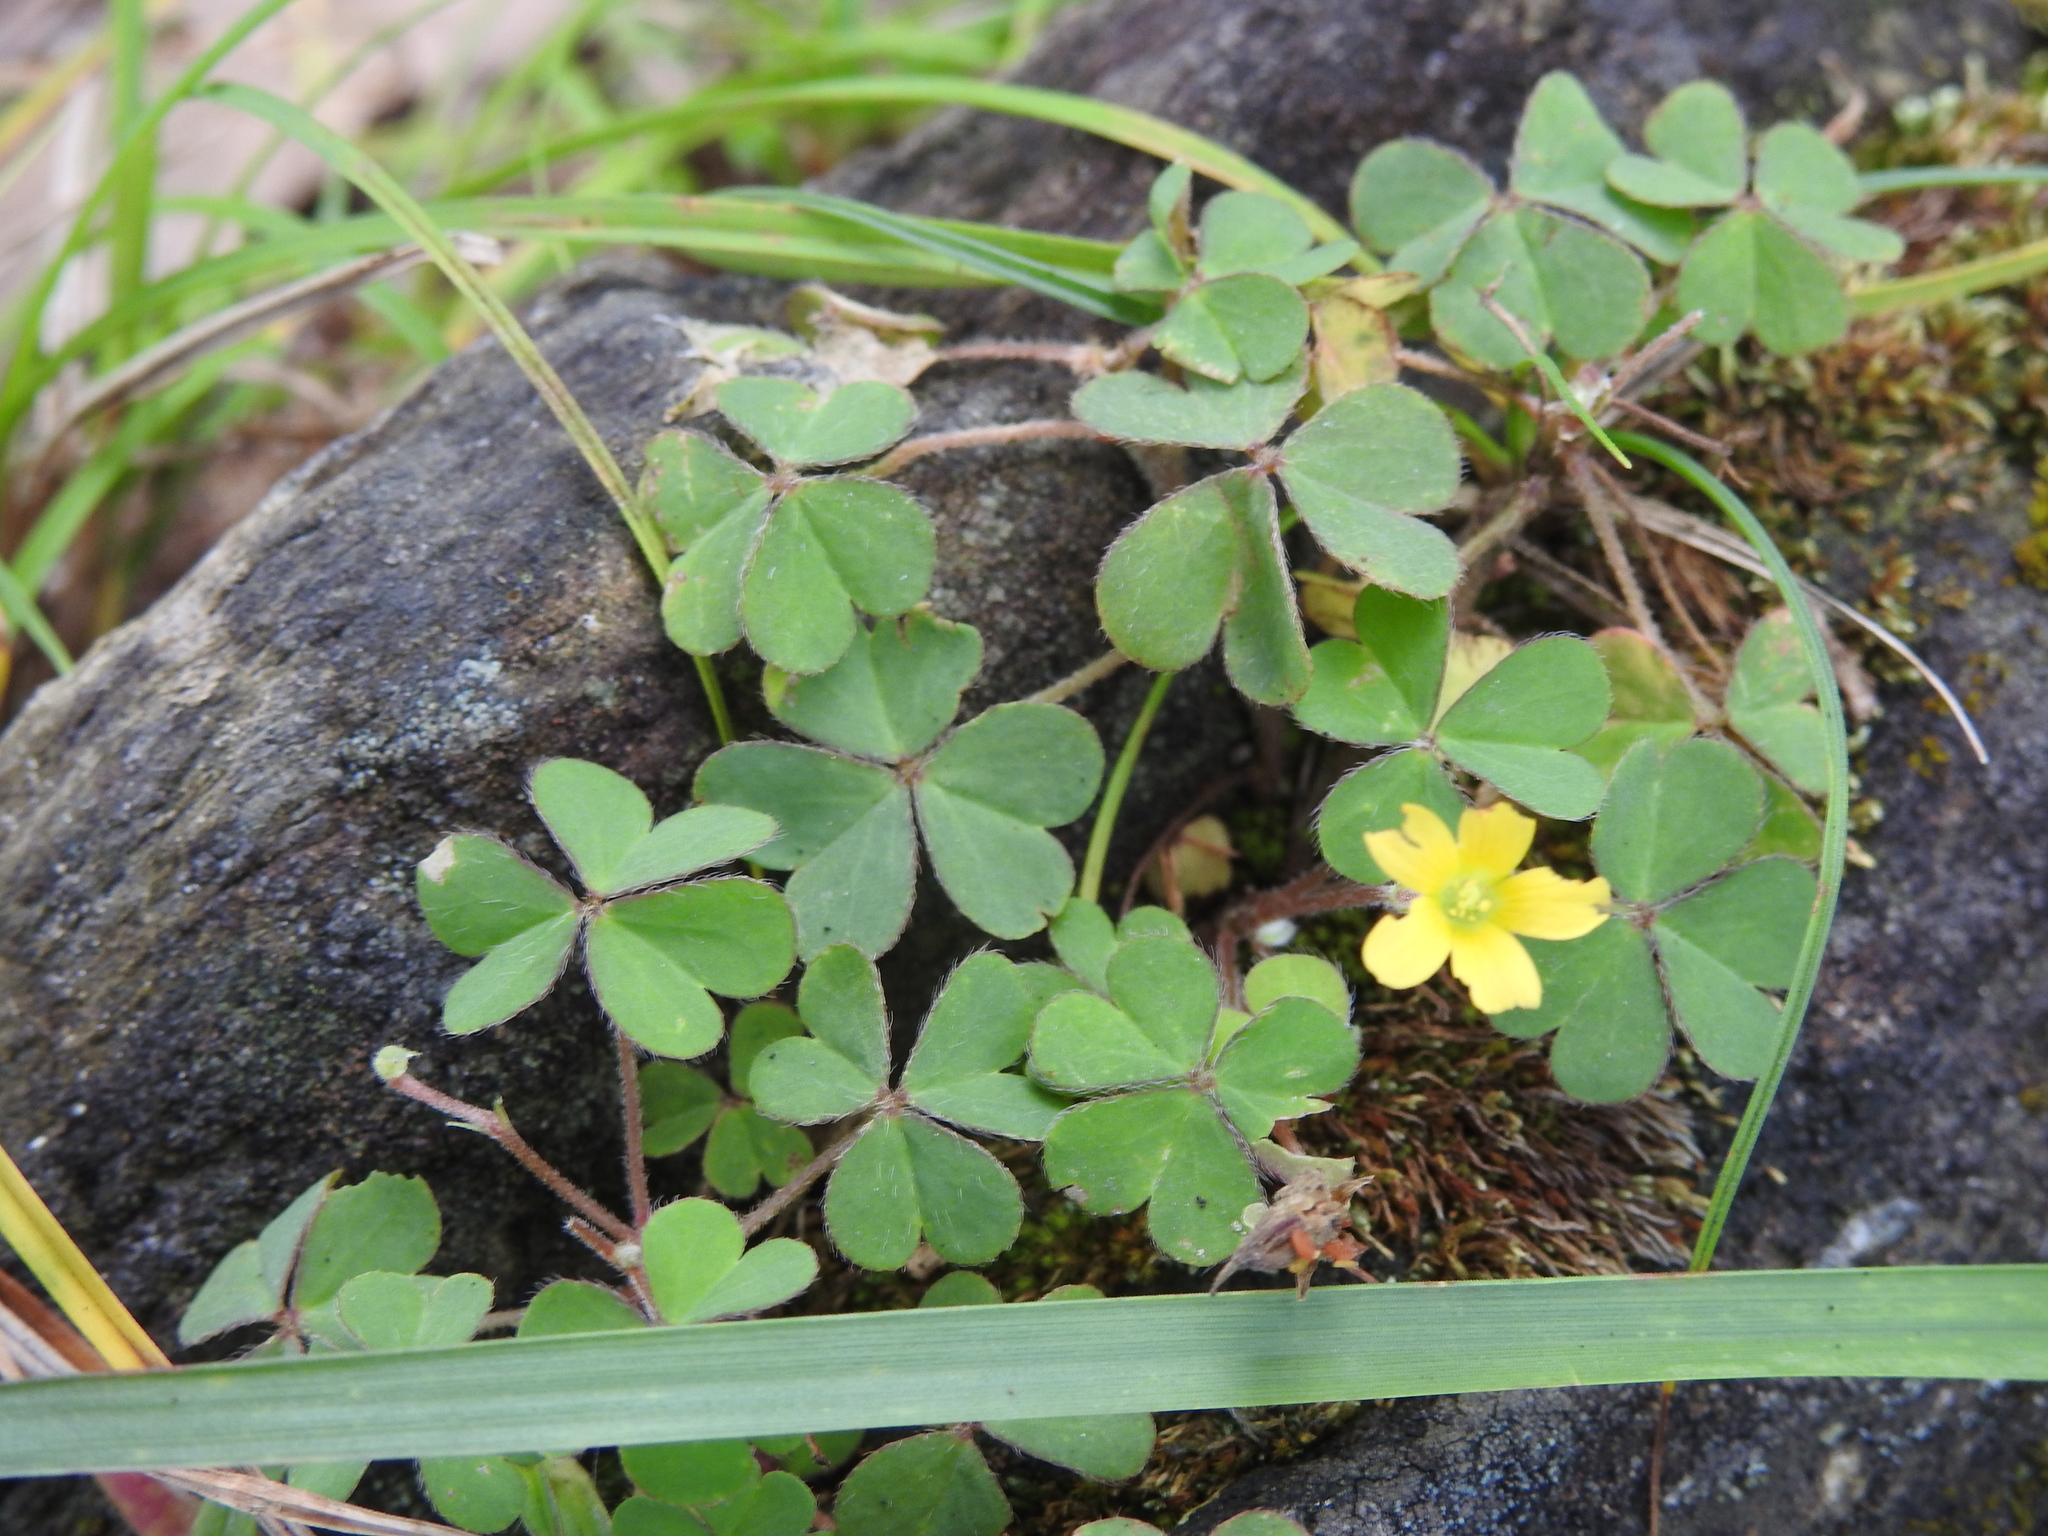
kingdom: Plantae
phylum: Tracheophyta
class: Magnoliopsida
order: Oxalidales
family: Oxalidaceae
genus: Oxalis
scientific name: Oxalis corniculata
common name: Procumbent yellow-sorrel
